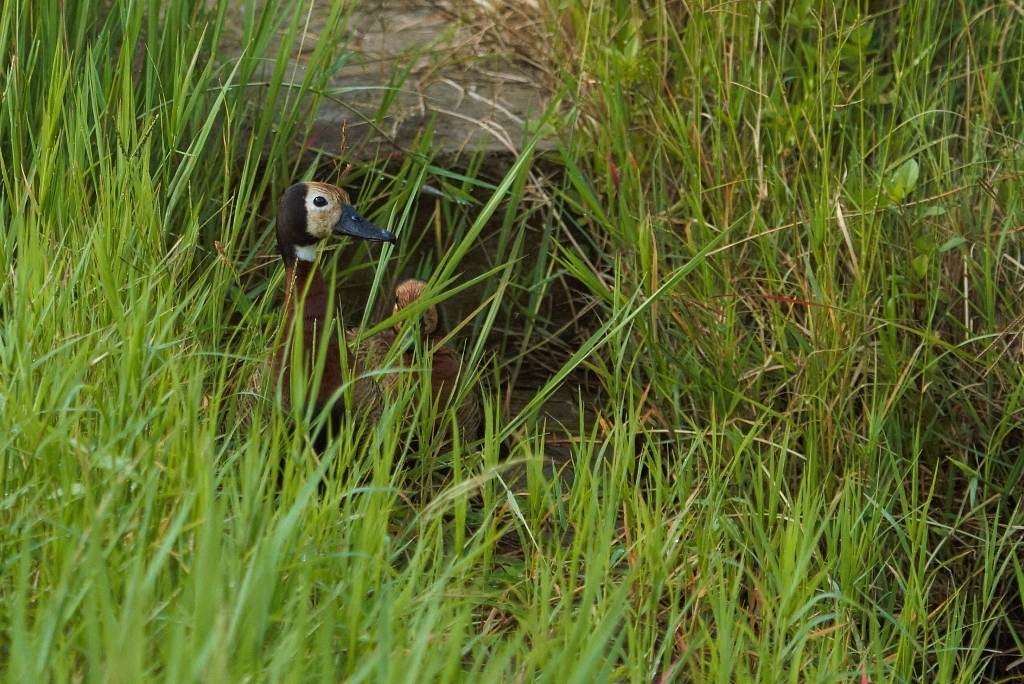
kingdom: Animalia
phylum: Chordata
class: Aves
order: Anseriformes
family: Anatidae
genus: Dendrocygna
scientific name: Dendrocygna viduata
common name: White-faced whistling duck
